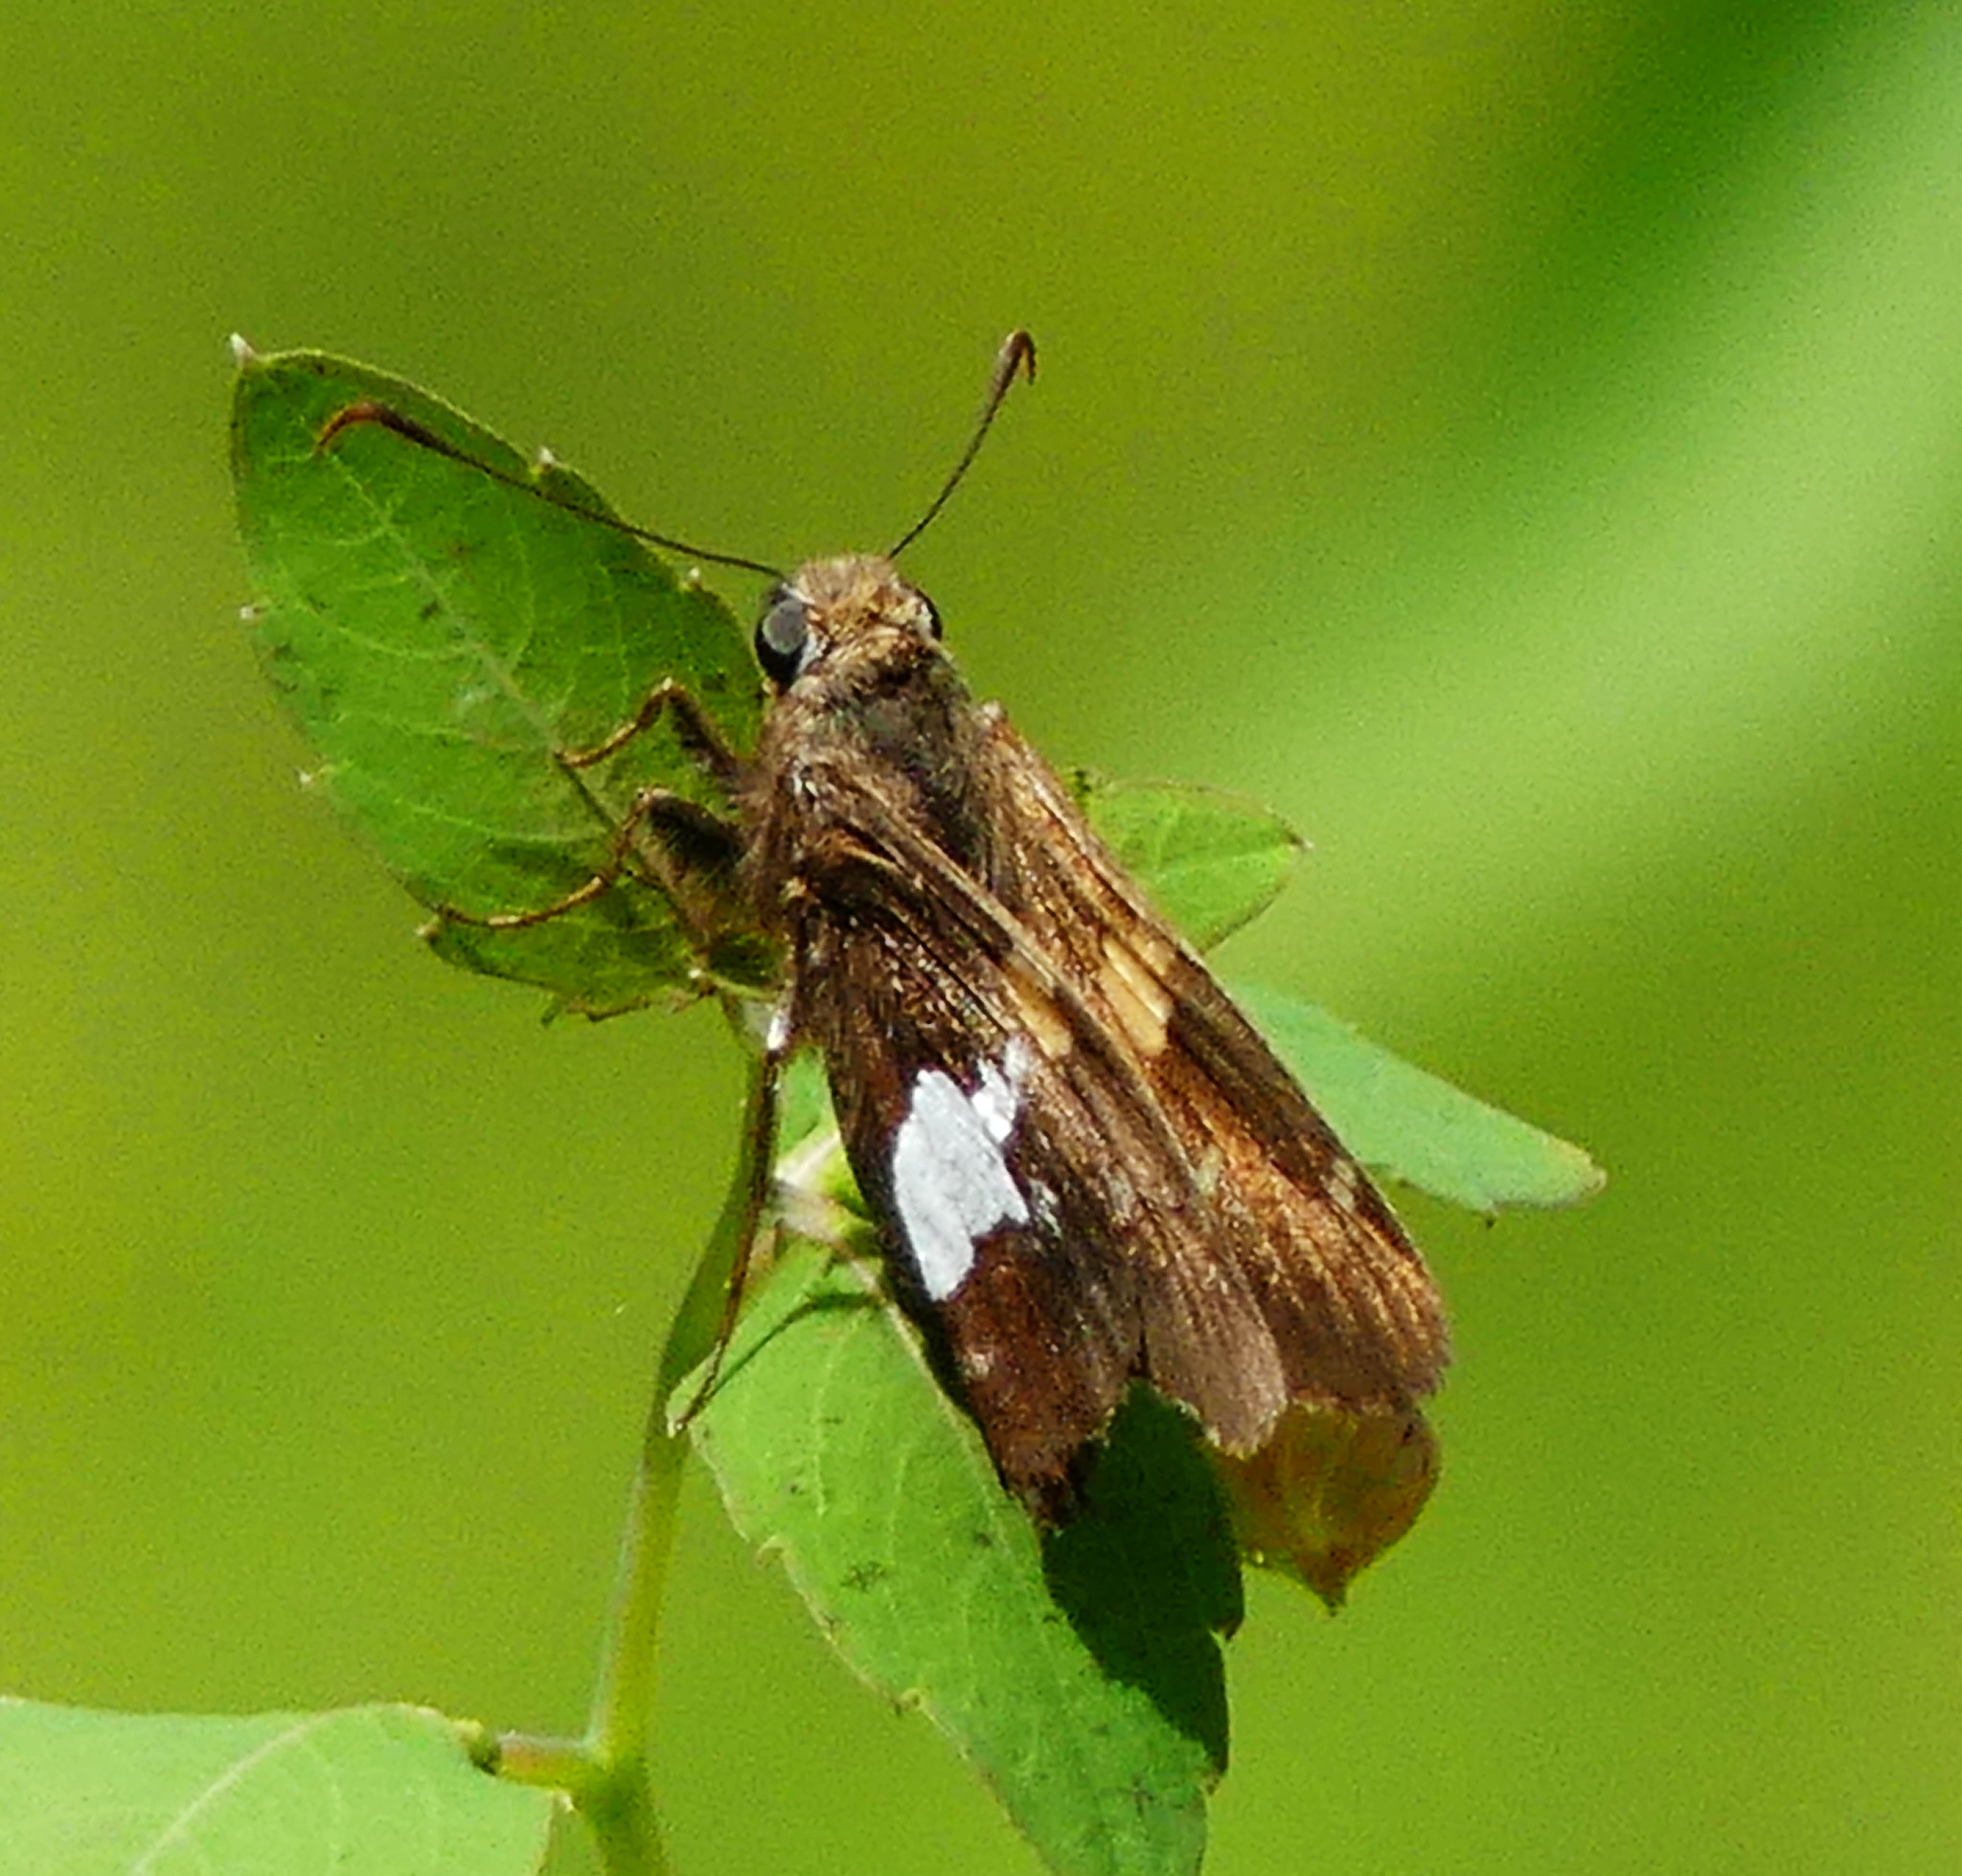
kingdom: Animalia
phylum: Arthropoda
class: Insecta
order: Lepidoptera
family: Hesperiidae
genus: Epargyreus
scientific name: Epargyreus clarus
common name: Silver-spotted skipper
